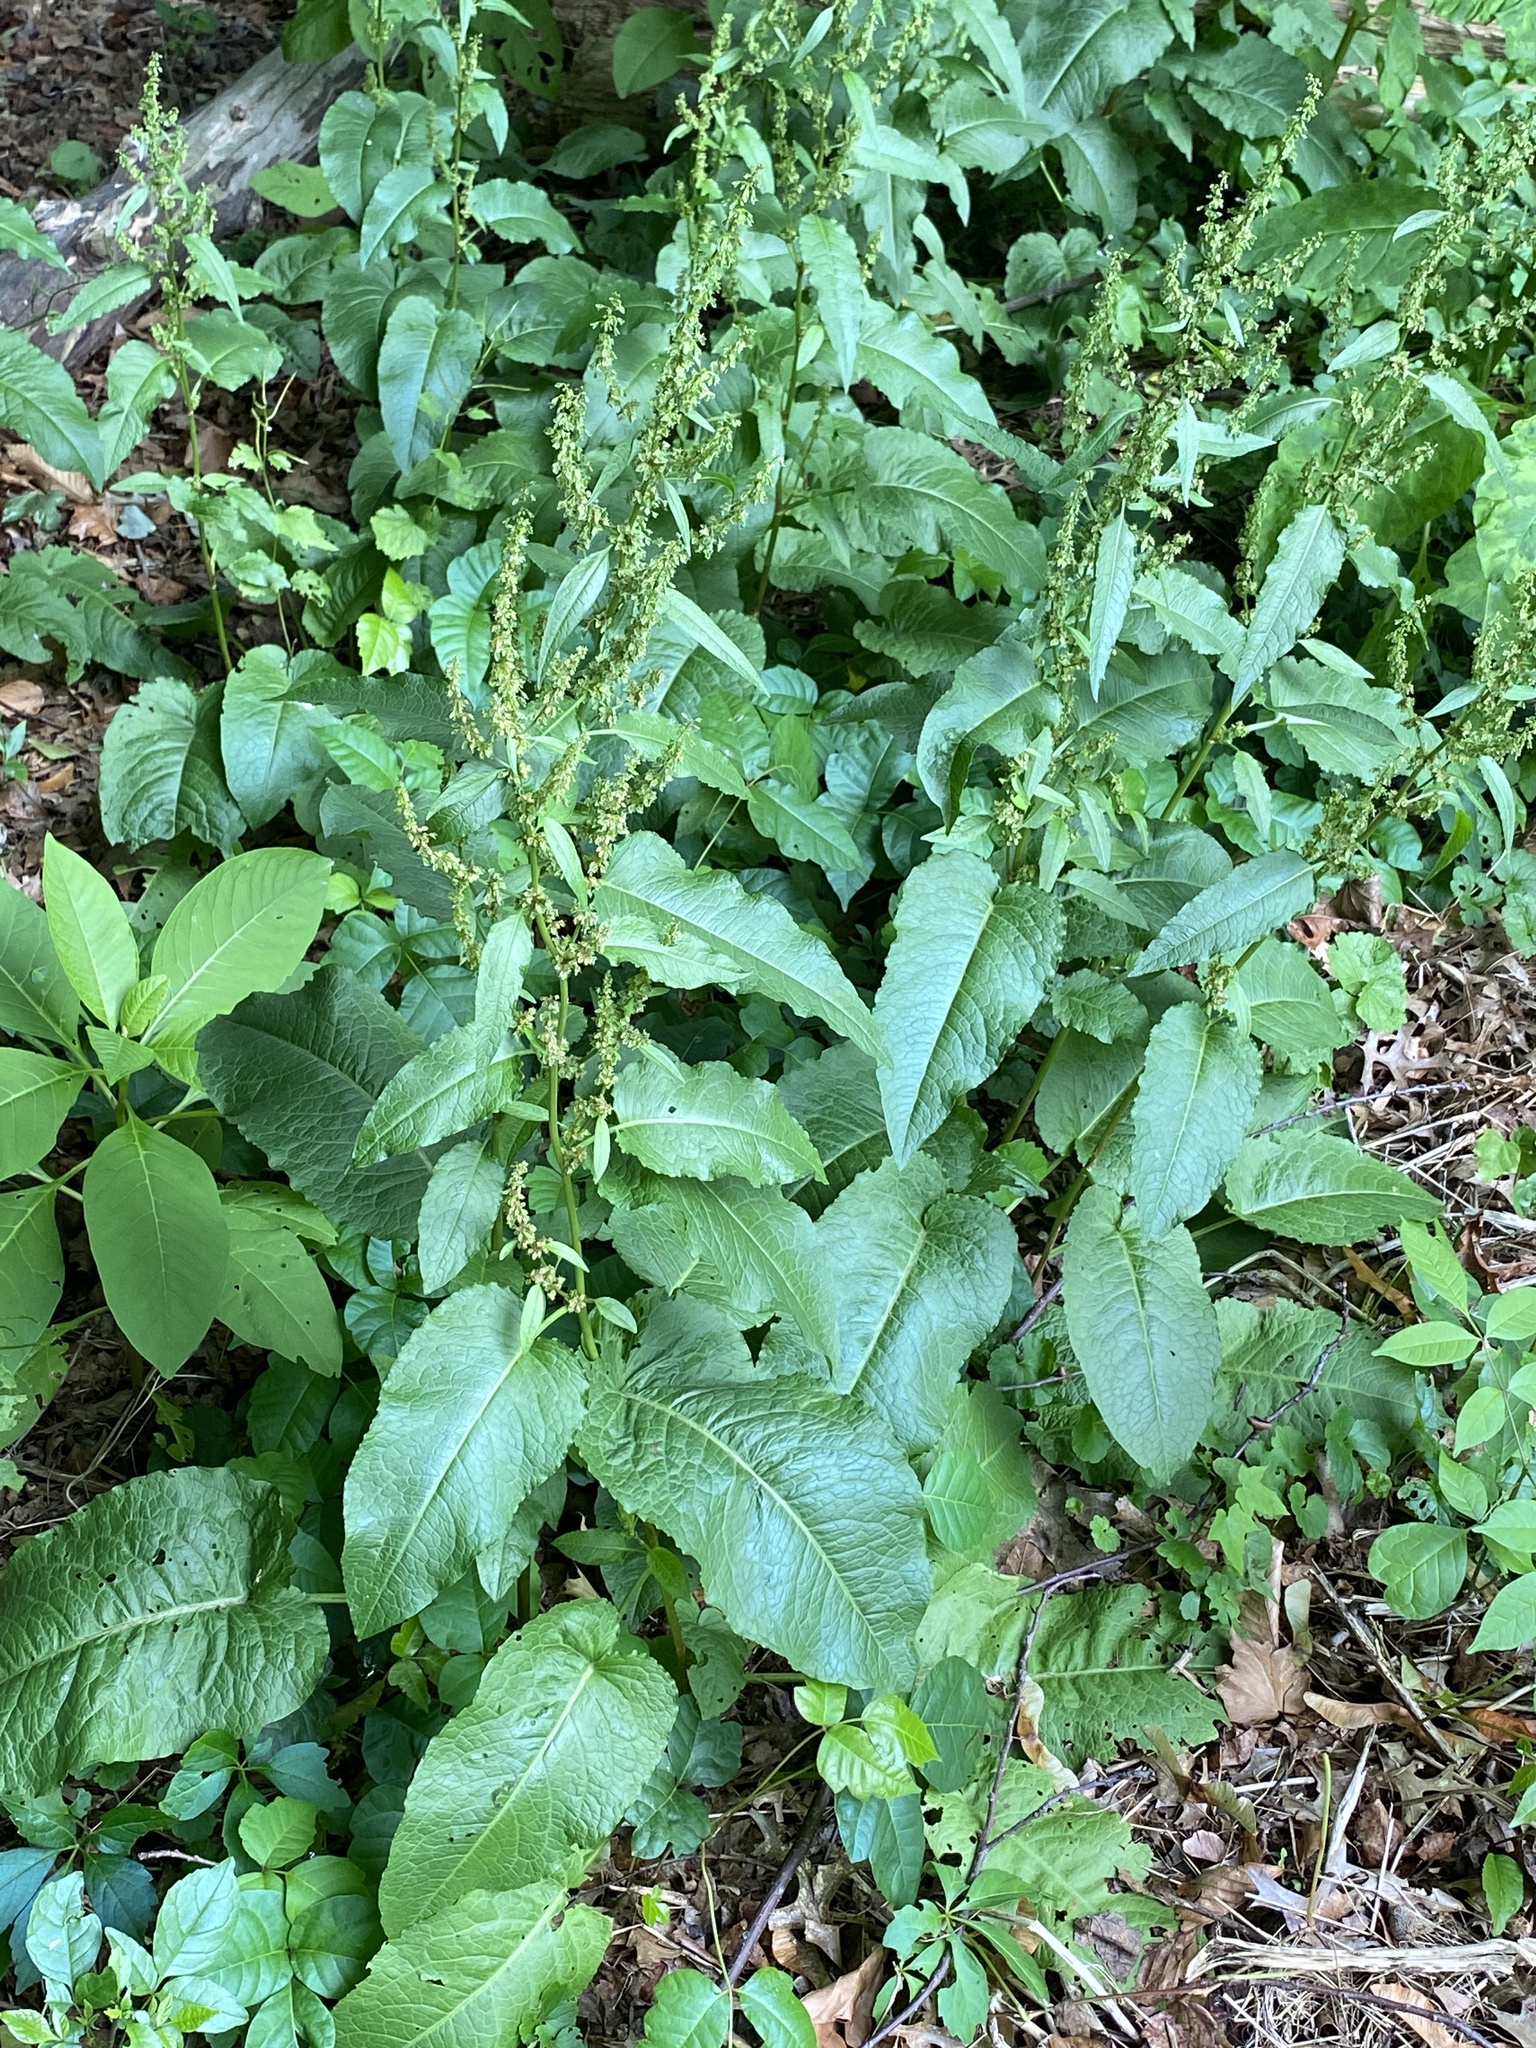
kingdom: Plantae
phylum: Tracheophyta
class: Magnoliopsida
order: Caryophyllales
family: Polygonaceae
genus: Rumex
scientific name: Rumex obtusifolius
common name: Bitter dock
